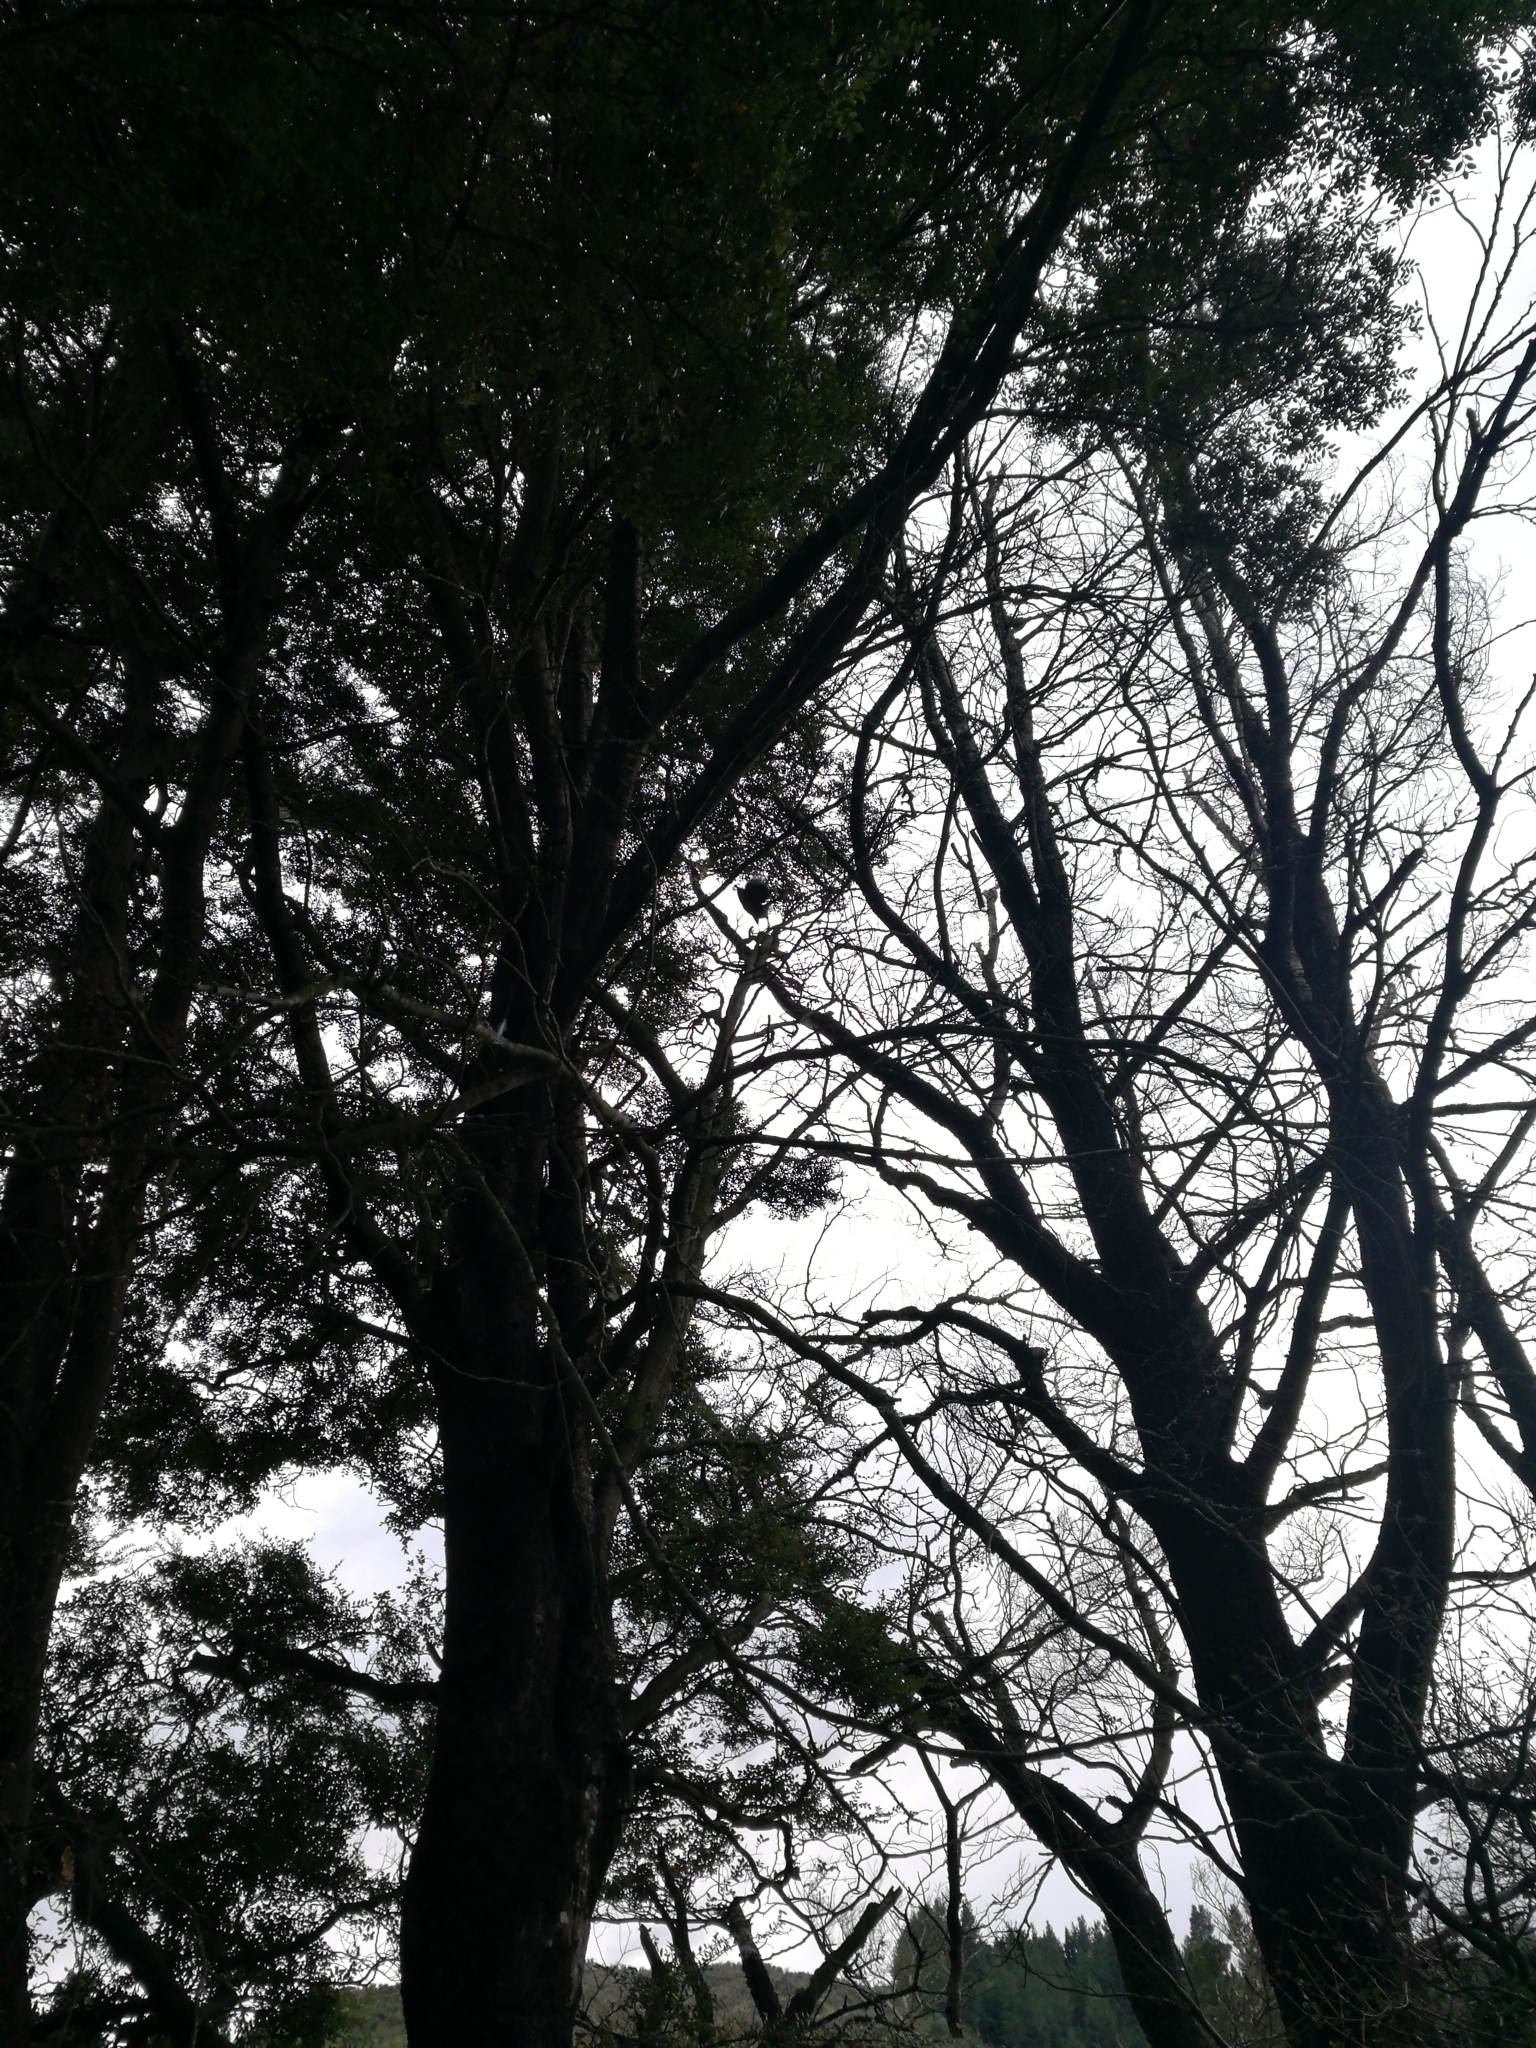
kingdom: Animalia
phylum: Chordata
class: Aves
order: Passeriformes
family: Meliphagidae
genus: Anthornis
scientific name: Anthornis melanura
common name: New zealand bellbird
